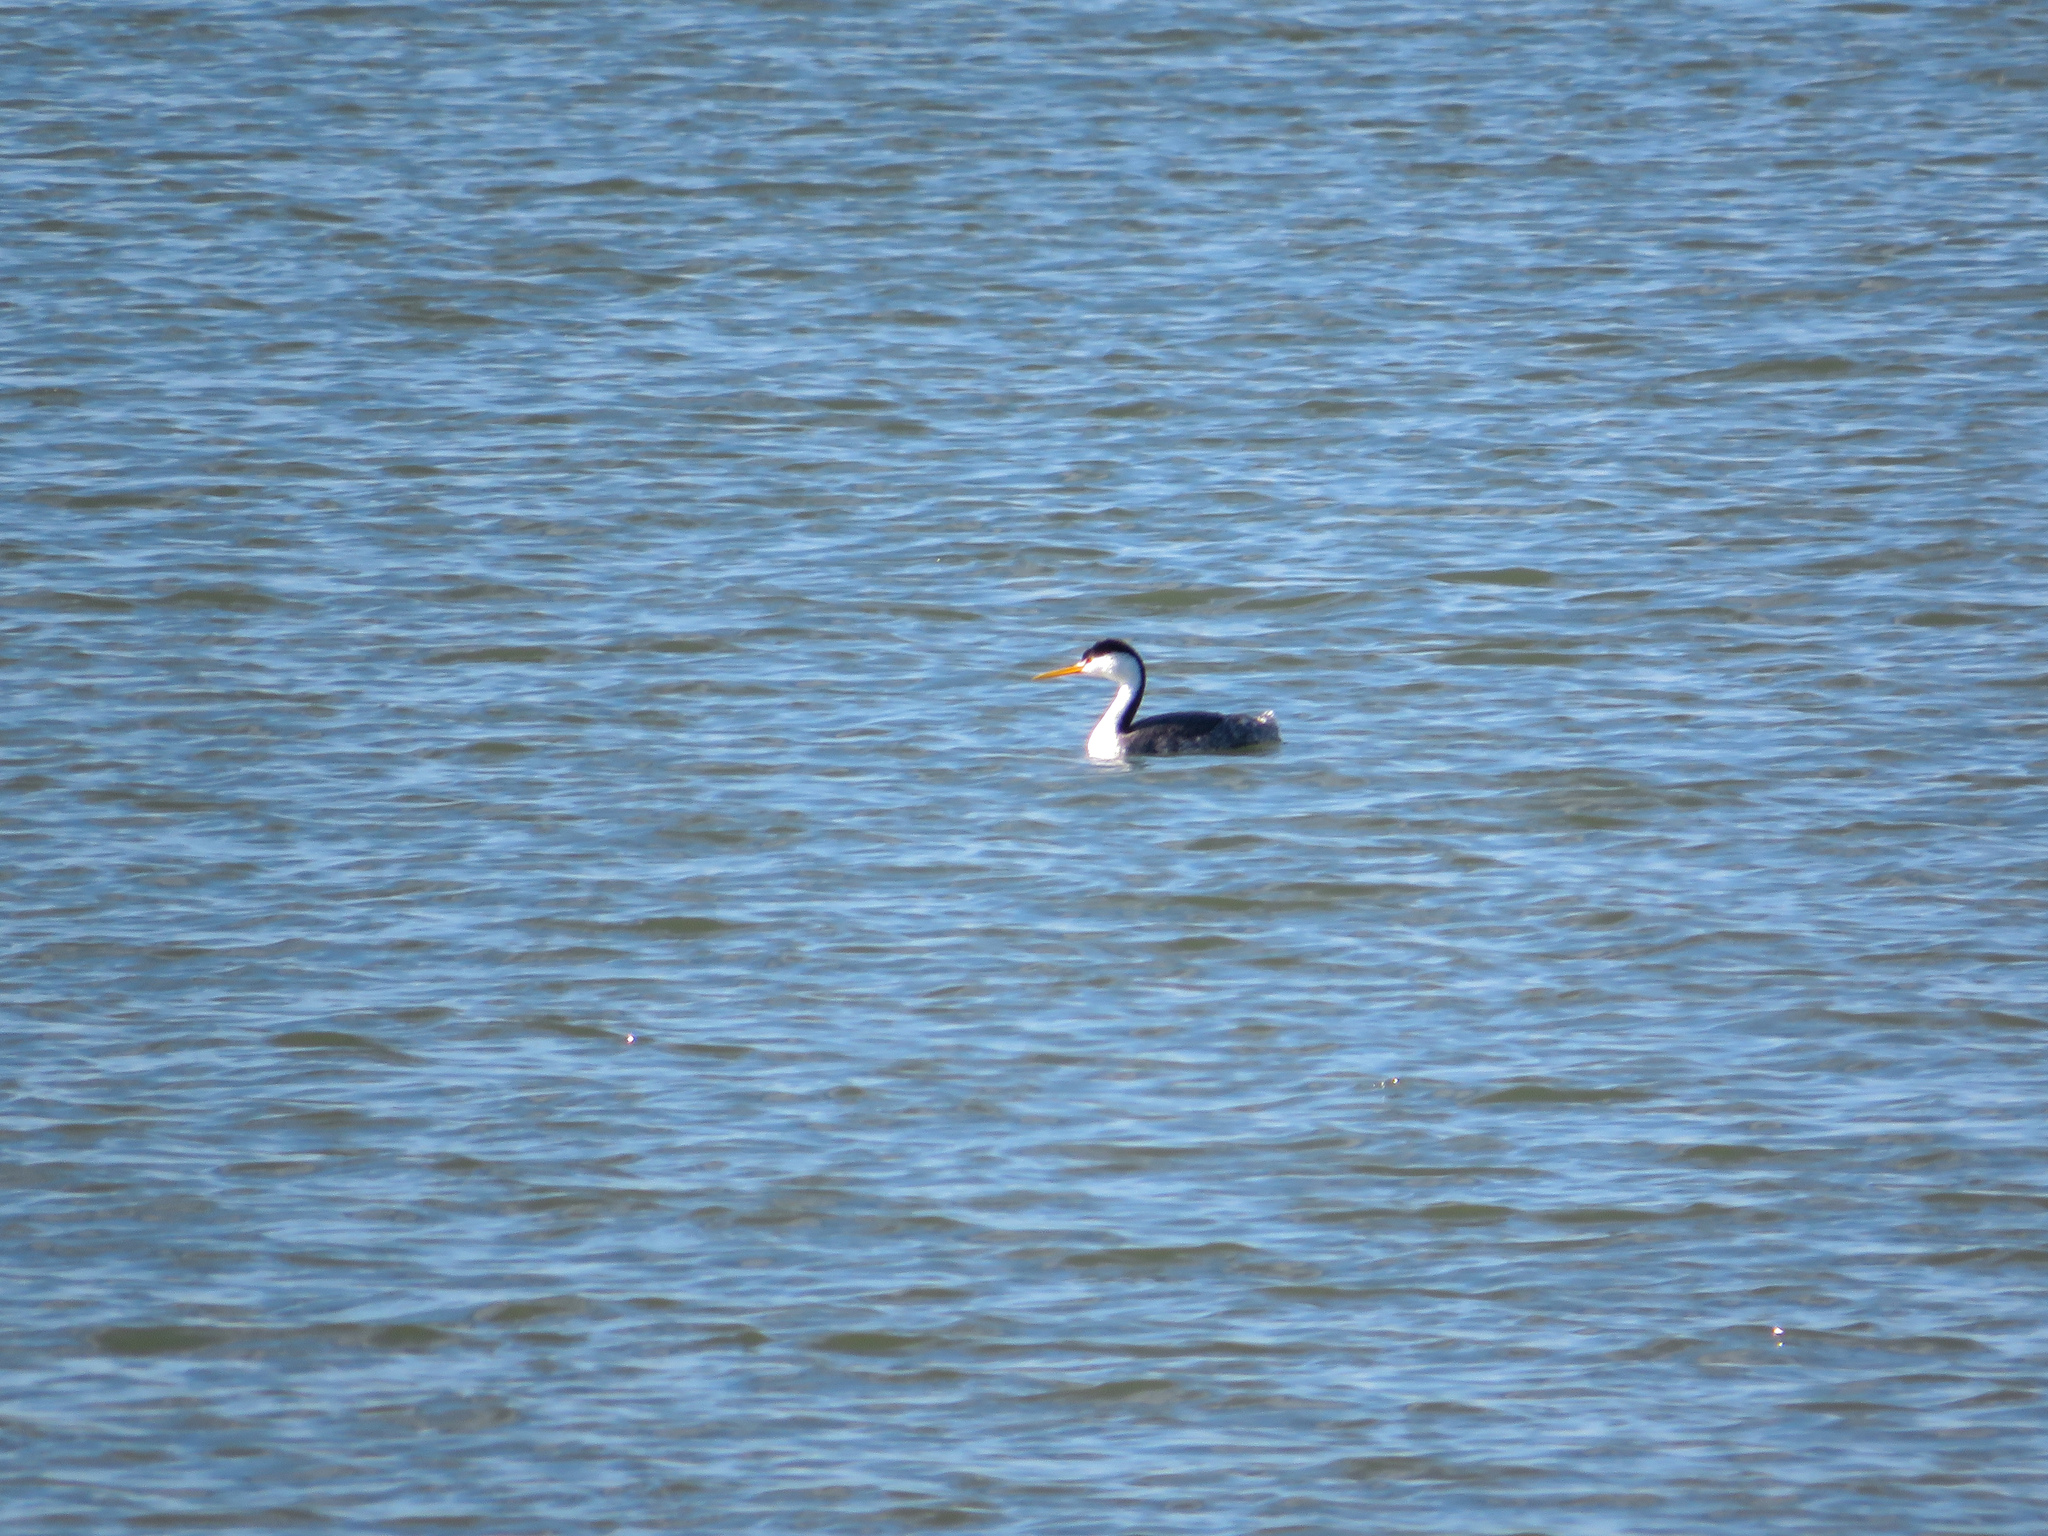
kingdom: Animalia
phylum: Chordata
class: Aves
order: Podicipediformes
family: Podicipedidae
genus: Aechmophorus
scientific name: Aechmophorus clarkii
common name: Clark's grebe
